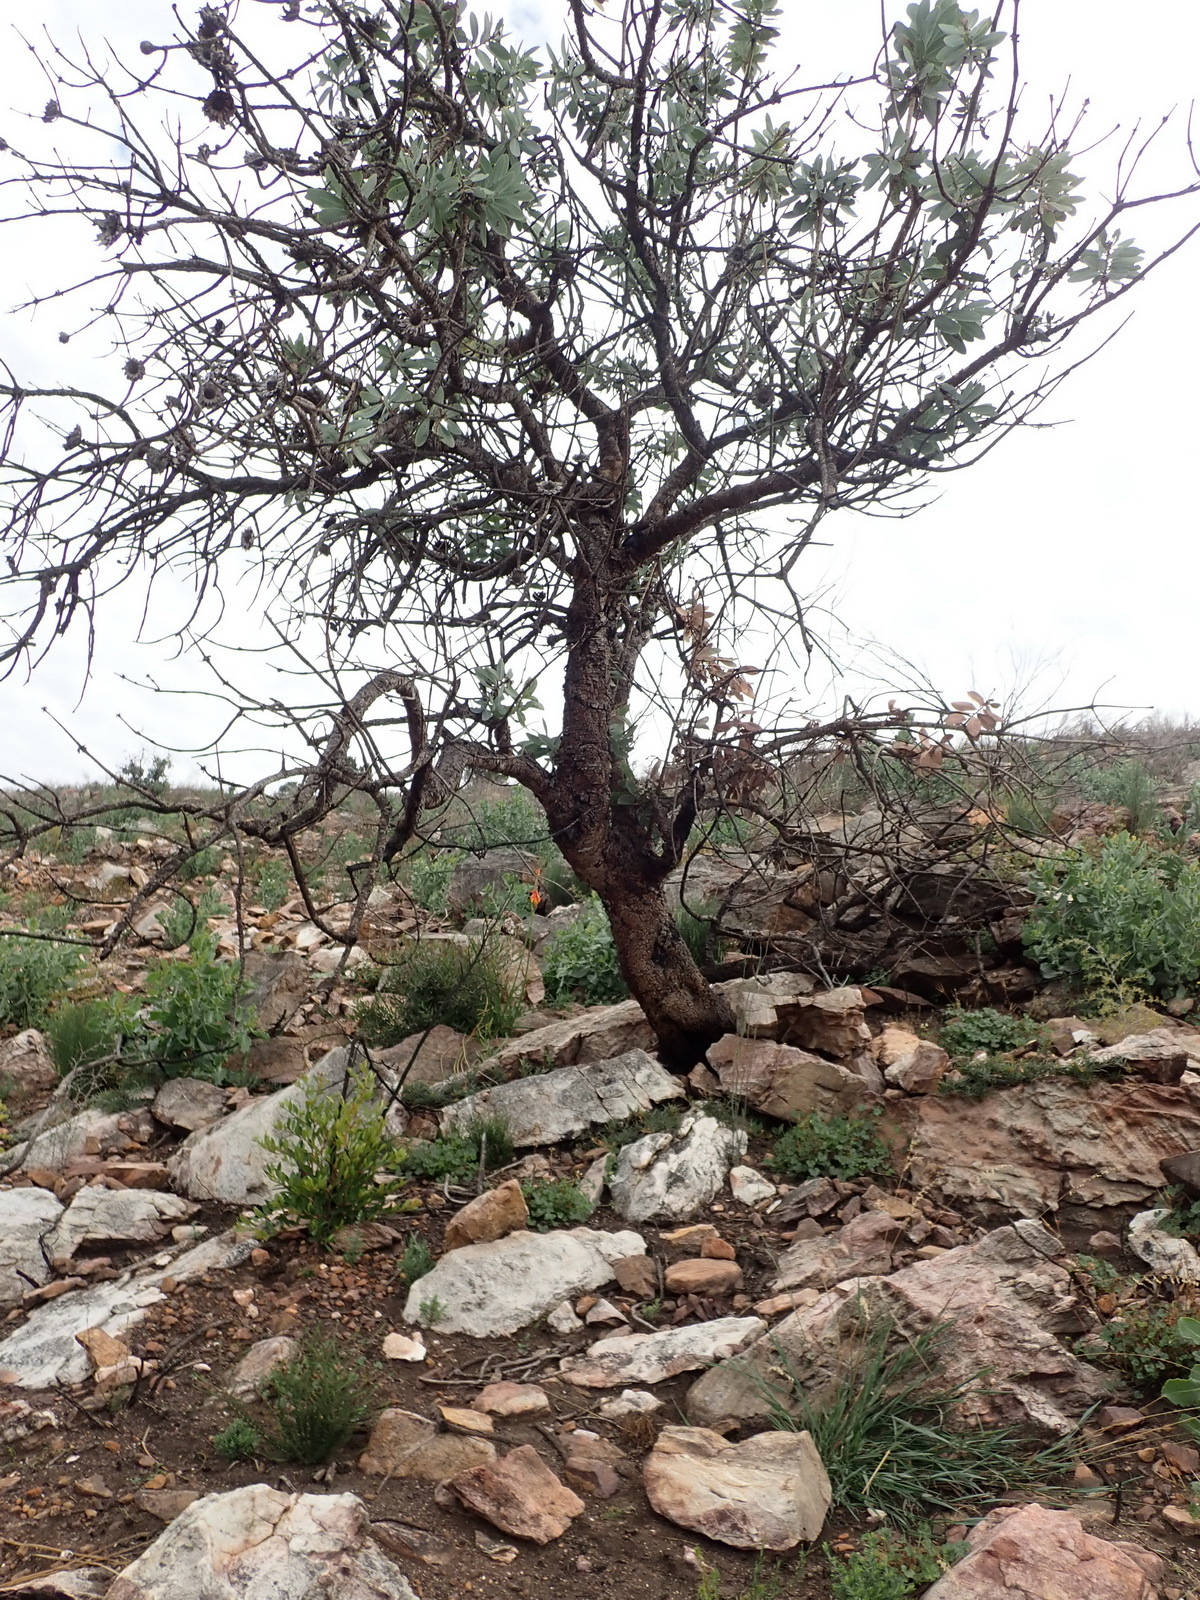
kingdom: Plantae
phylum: Tracheophyta
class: Magnoliopsida
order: Proteales
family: Proteaceae
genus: Protea
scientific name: Protea nitida
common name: Tree protea
